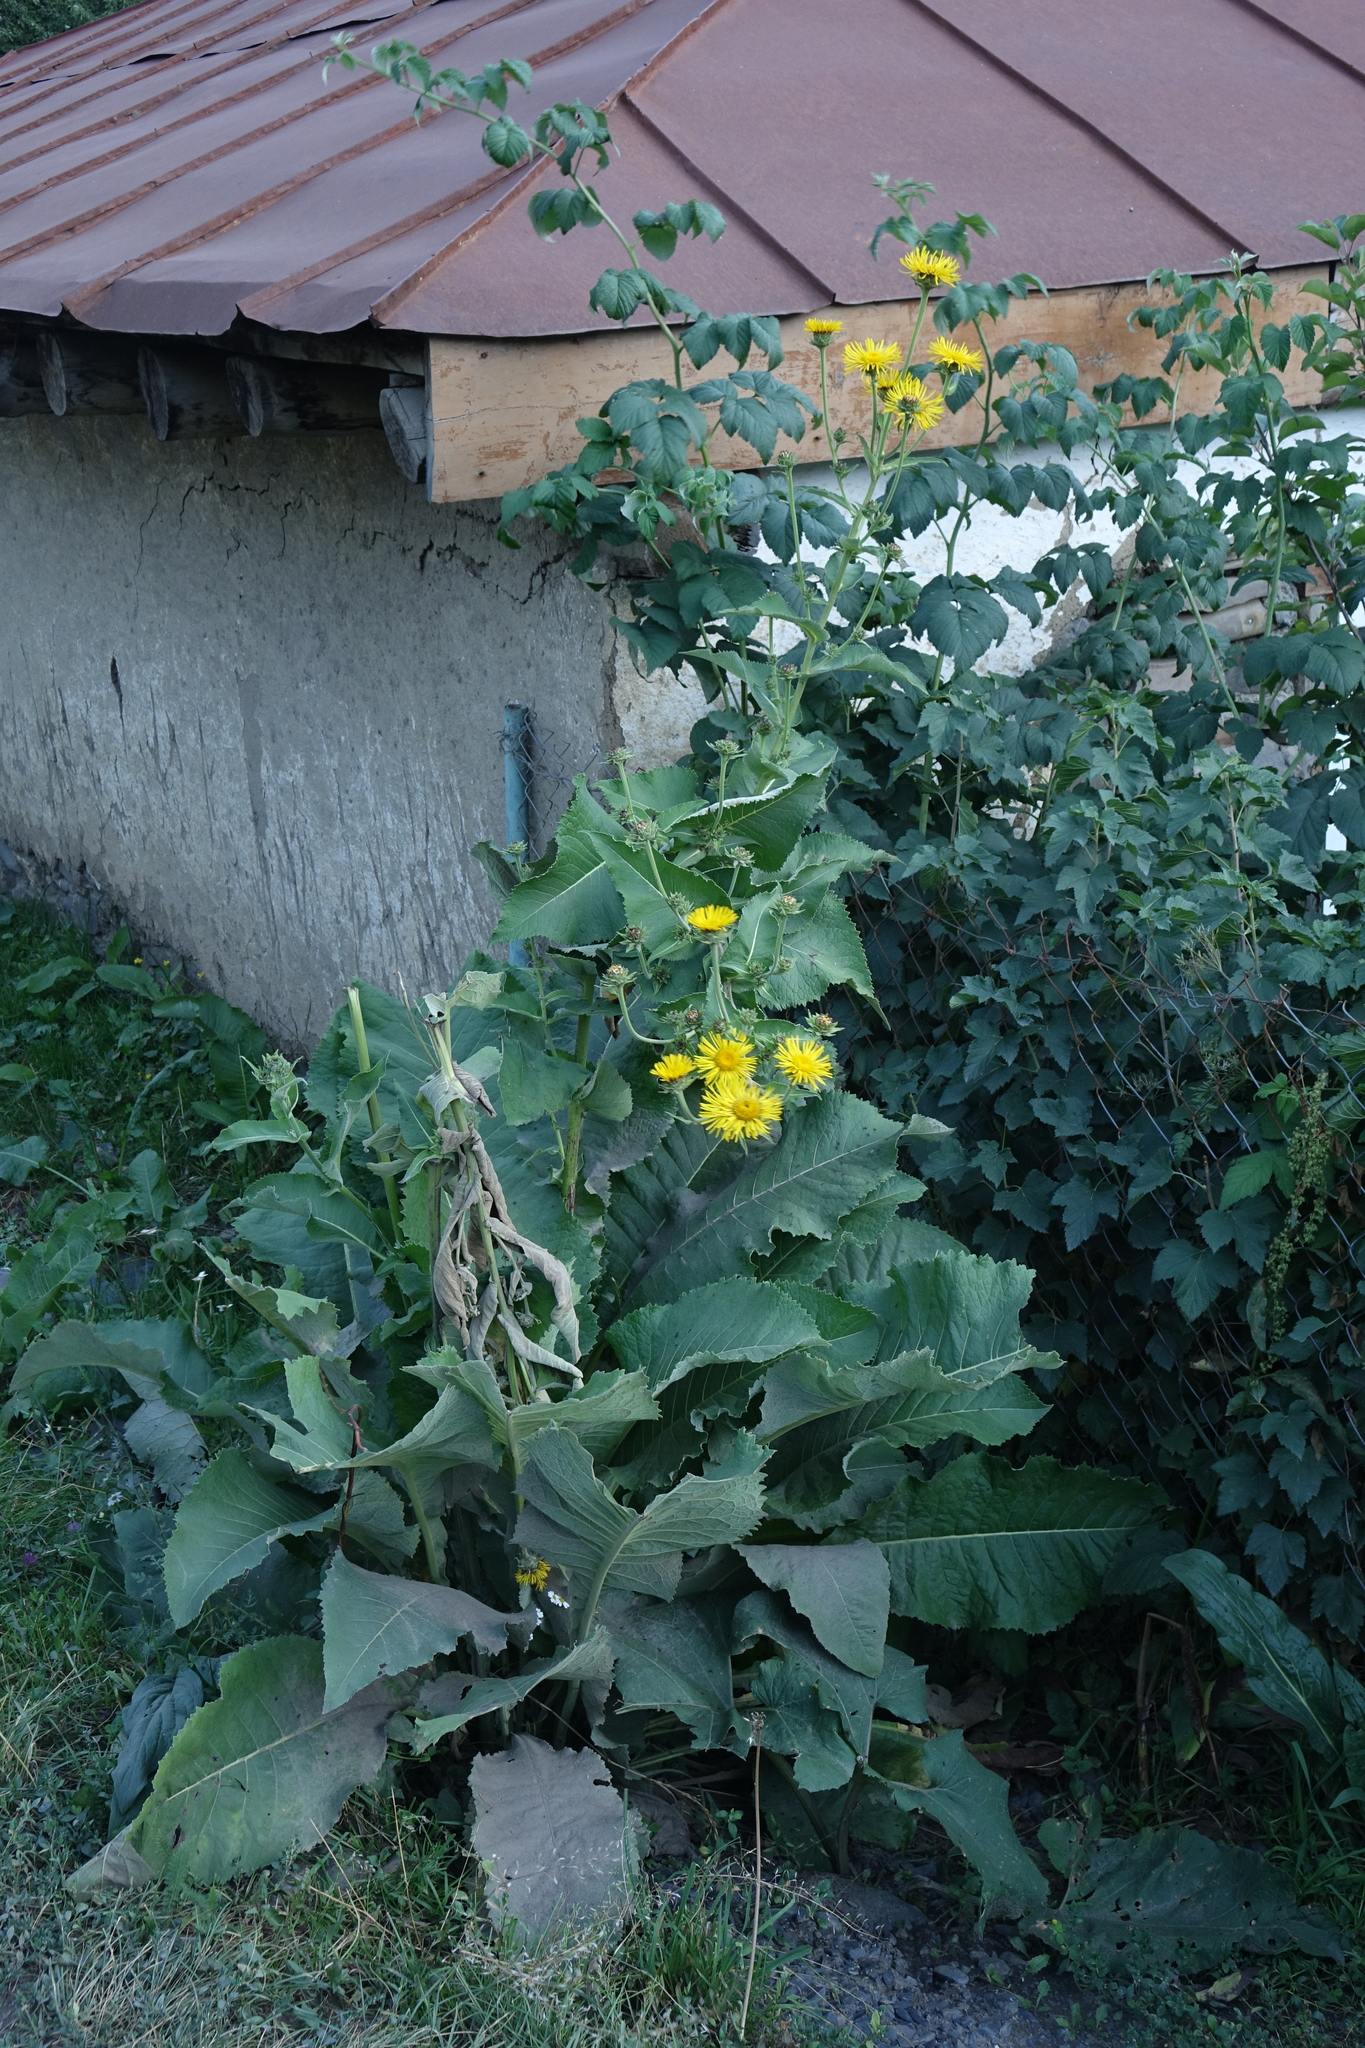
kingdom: Plantae
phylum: Tracheophyta
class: Magnoliopsida
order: Asterales
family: Asteraceae
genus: Inula
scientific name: Inula helenium
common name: Elecampane
